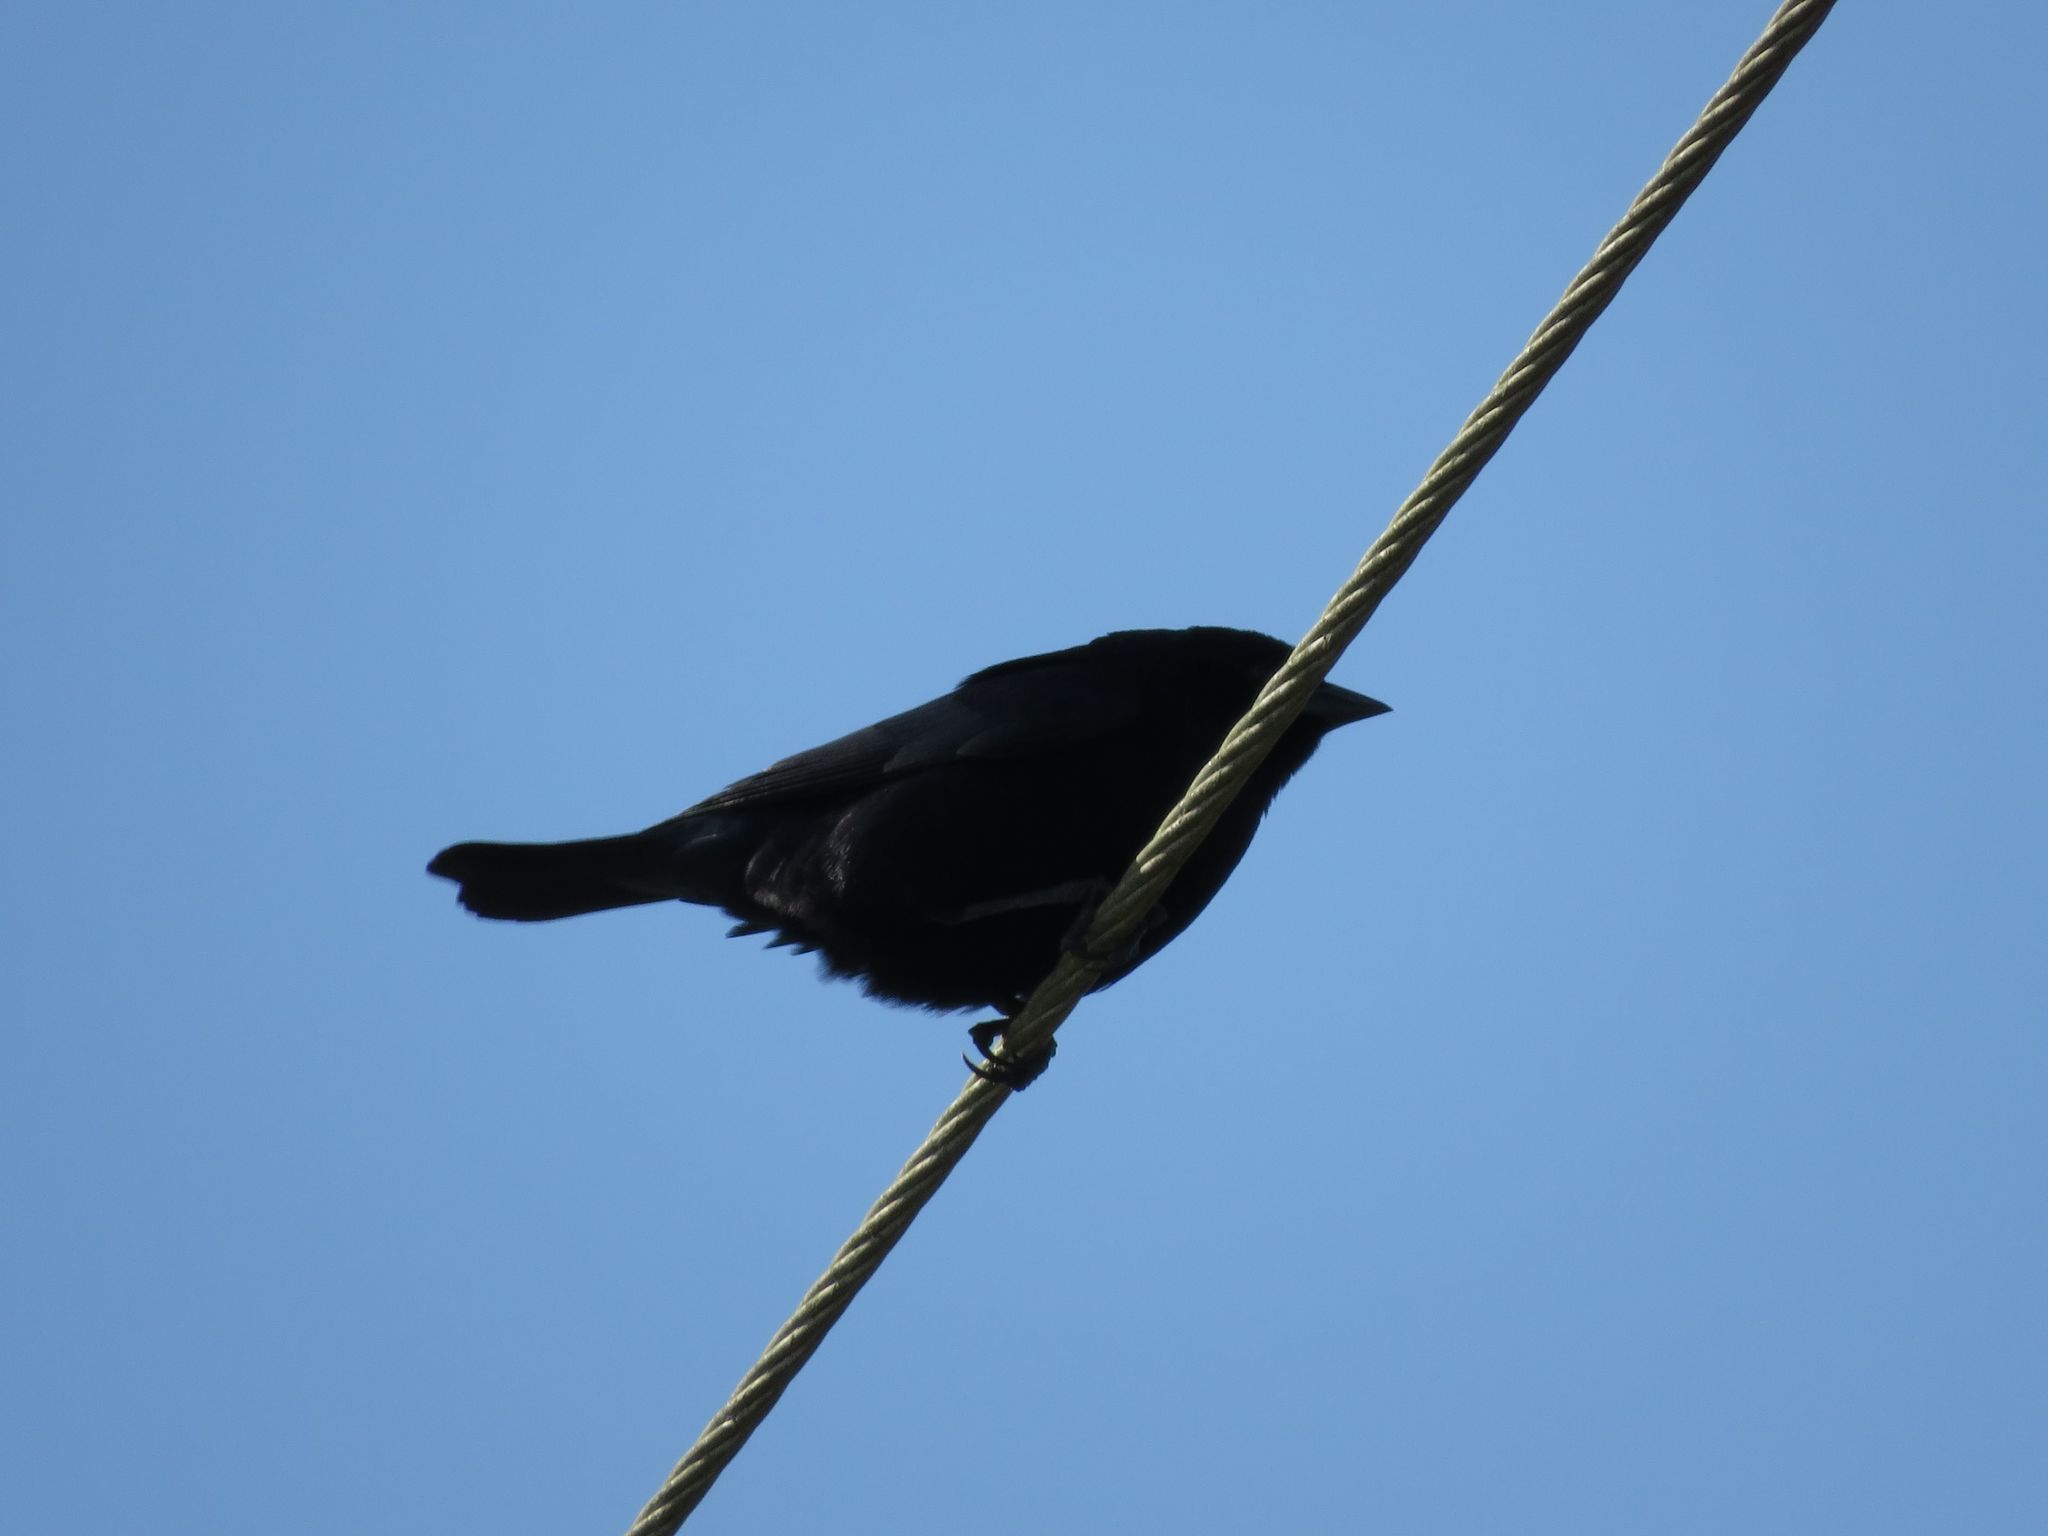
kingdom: Animalia
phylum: Chordata
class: Aves
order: Passeriformes
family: Icteridae
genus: Molothrus
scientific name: Molothrus bonariensis
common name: Shiny cowbird
